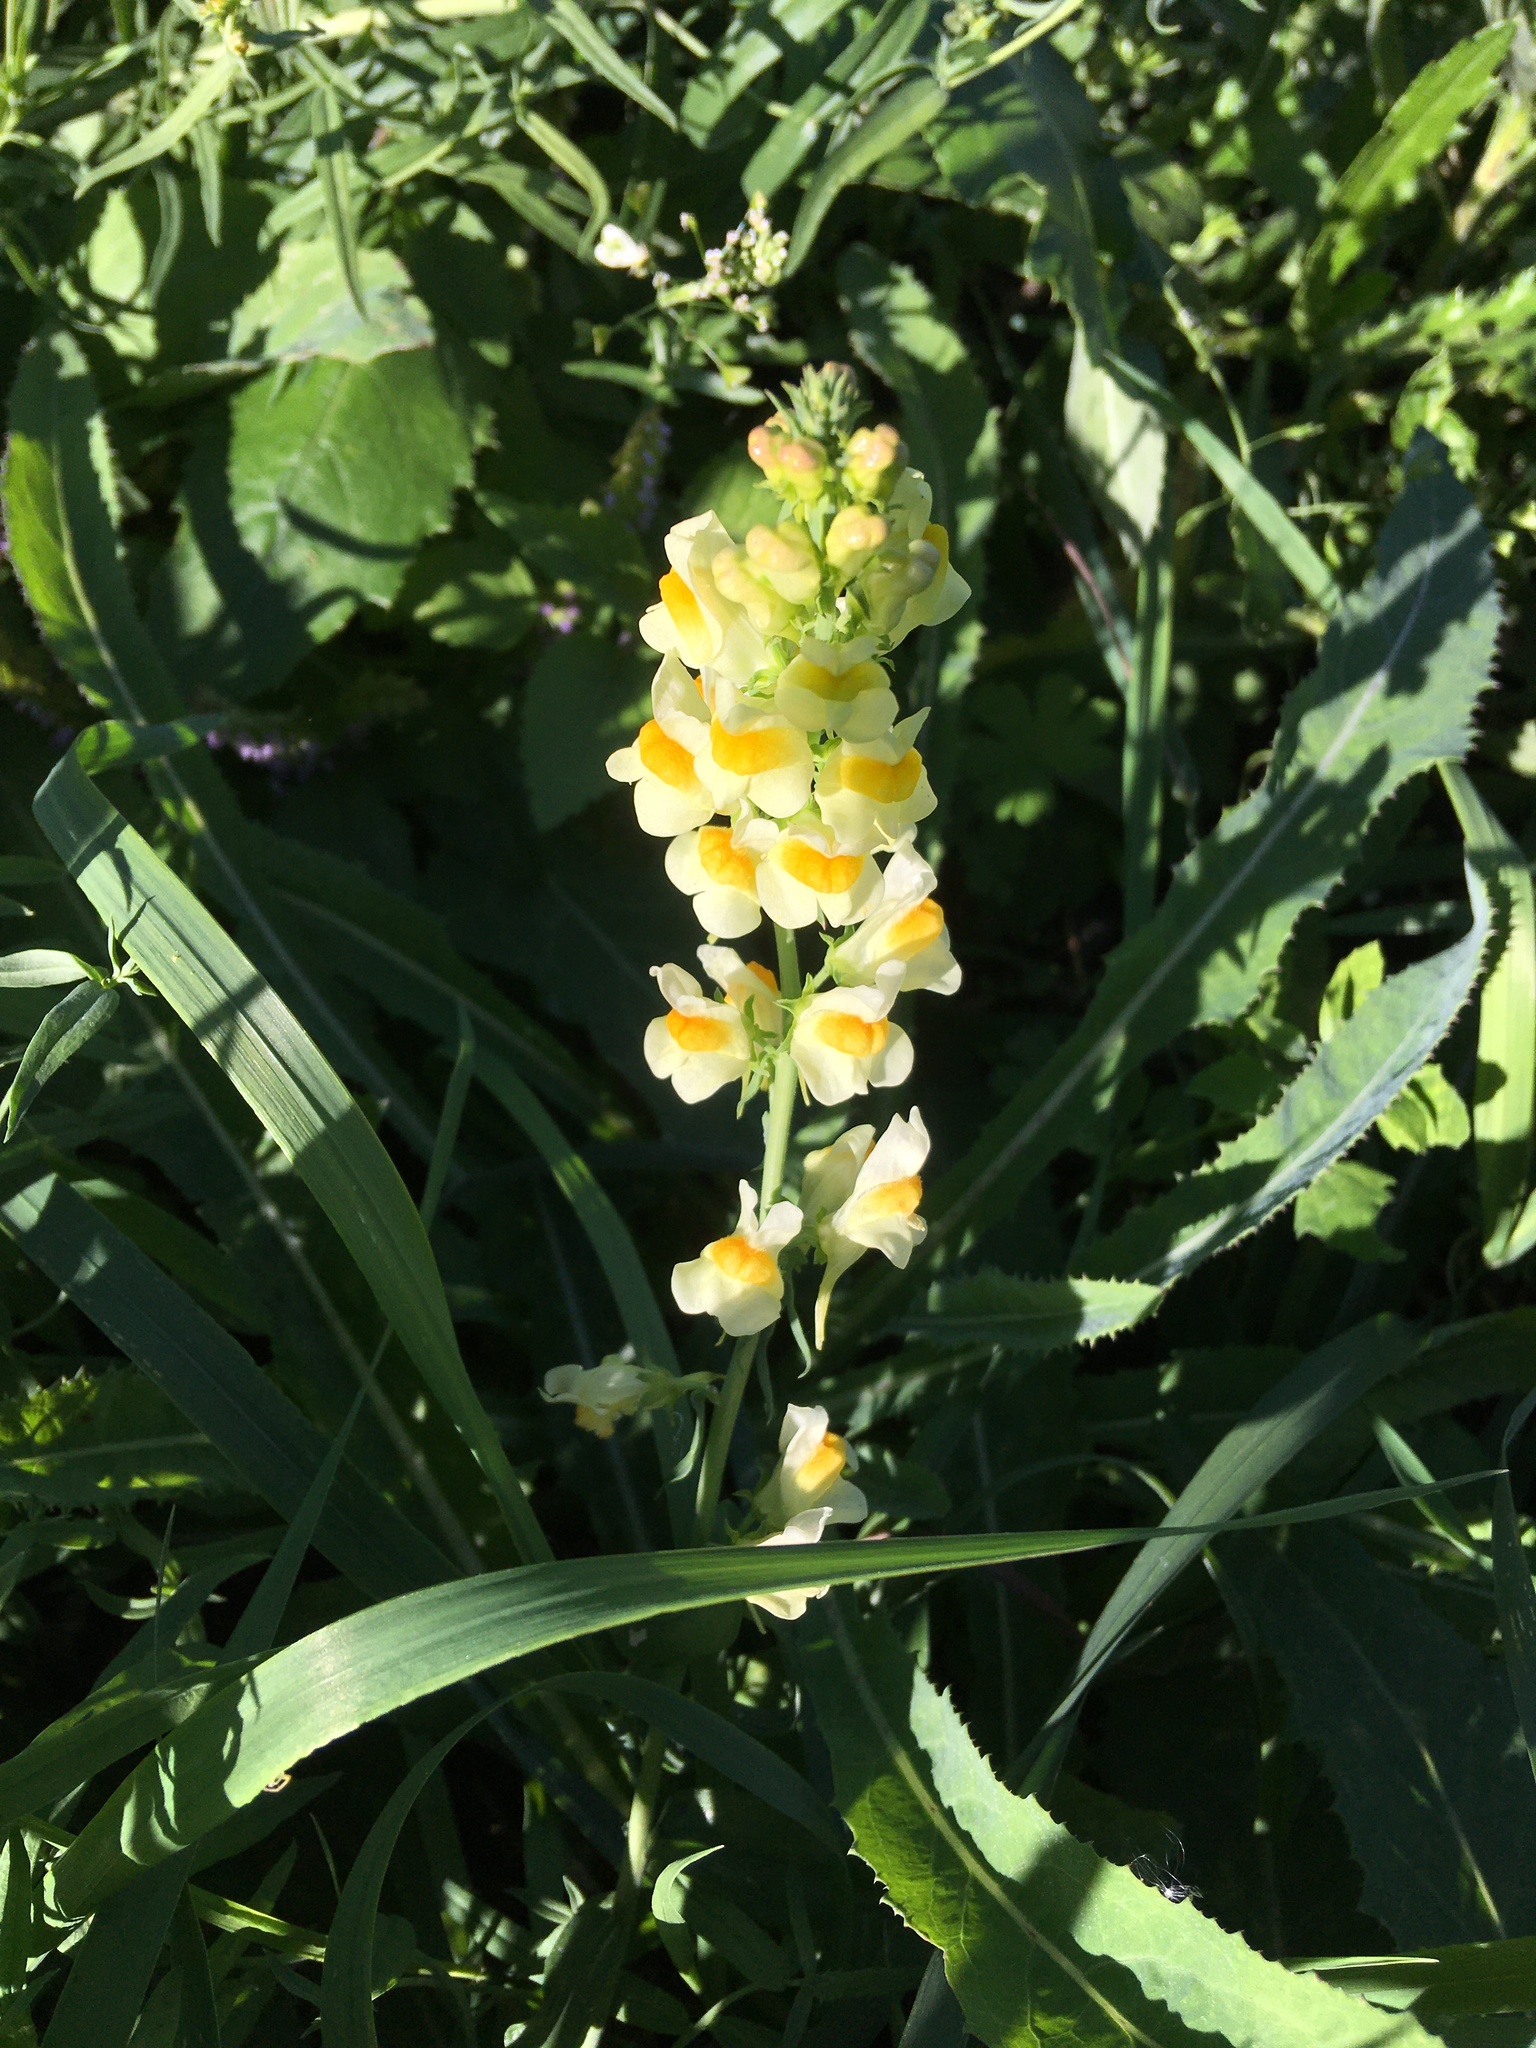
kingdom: Plantae
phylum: Tracheophyta
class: Magnoliopsida
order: Lamiales
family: Plantaginaceae
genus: Linaria
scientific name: Linaria vulgaris
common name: Butter and eggs
